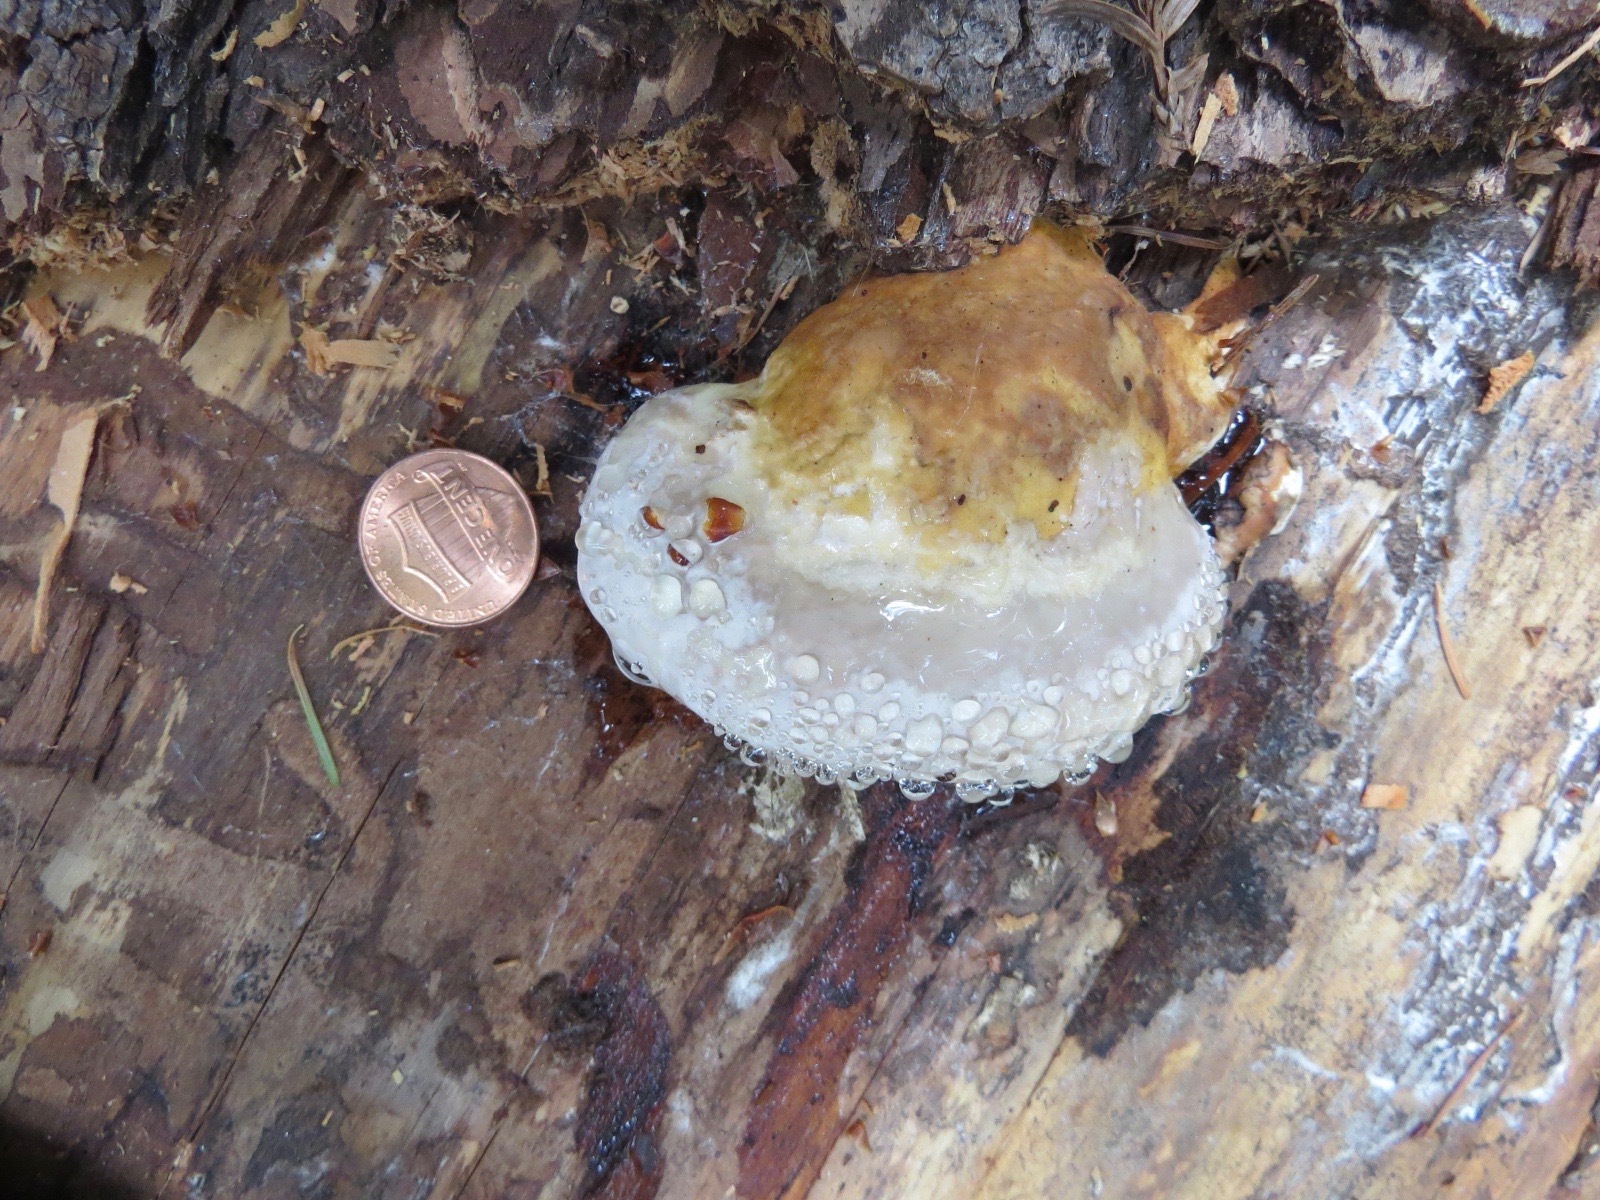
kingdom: Fungi
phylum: Basidiomycota
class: Agaricomycetes
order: Polyporales
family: Fomitopsidaceae
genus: Fomitopsis
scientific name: Fomitopsis mounceae
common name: Northern red belt
